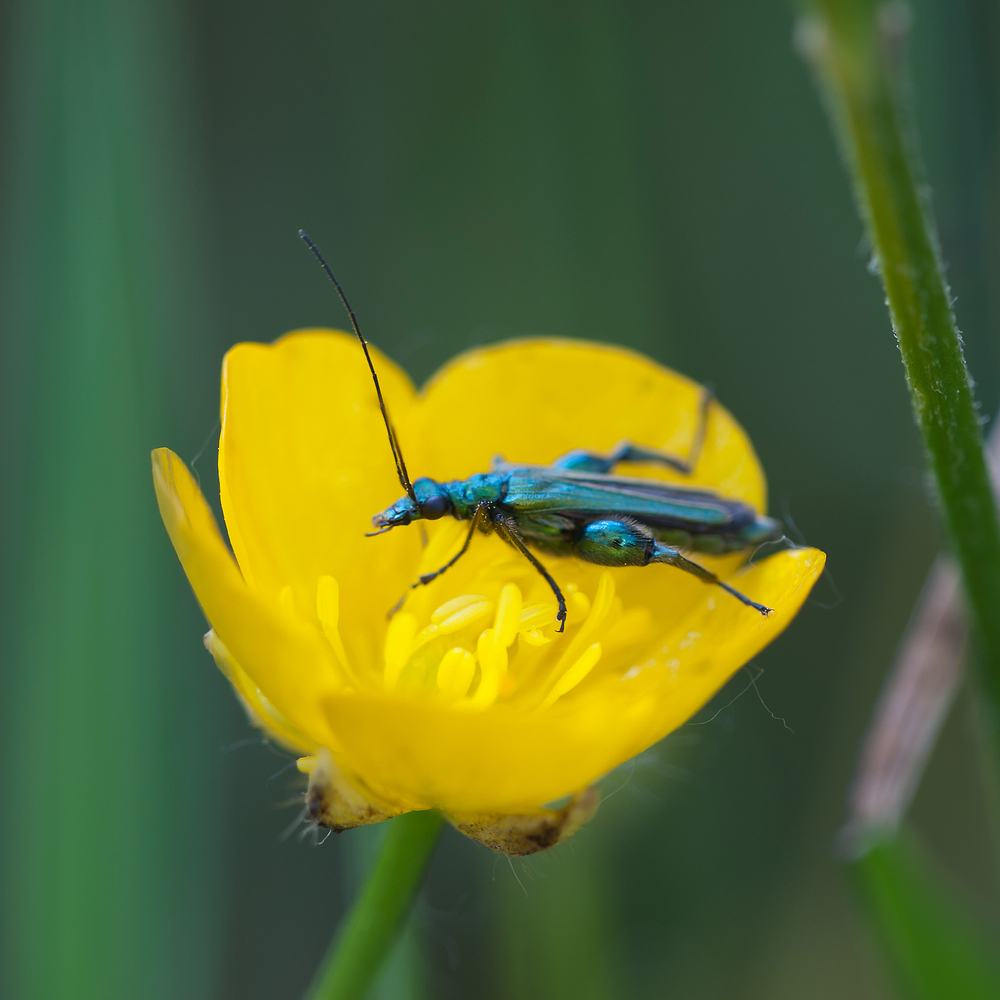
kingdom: Animalia
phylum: Arthropoda
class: Insecta
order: Coleoptera
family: Oedemeridae
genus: Oedemera
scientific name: Oedemera nobilis
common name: Swollen-thighed beetle
